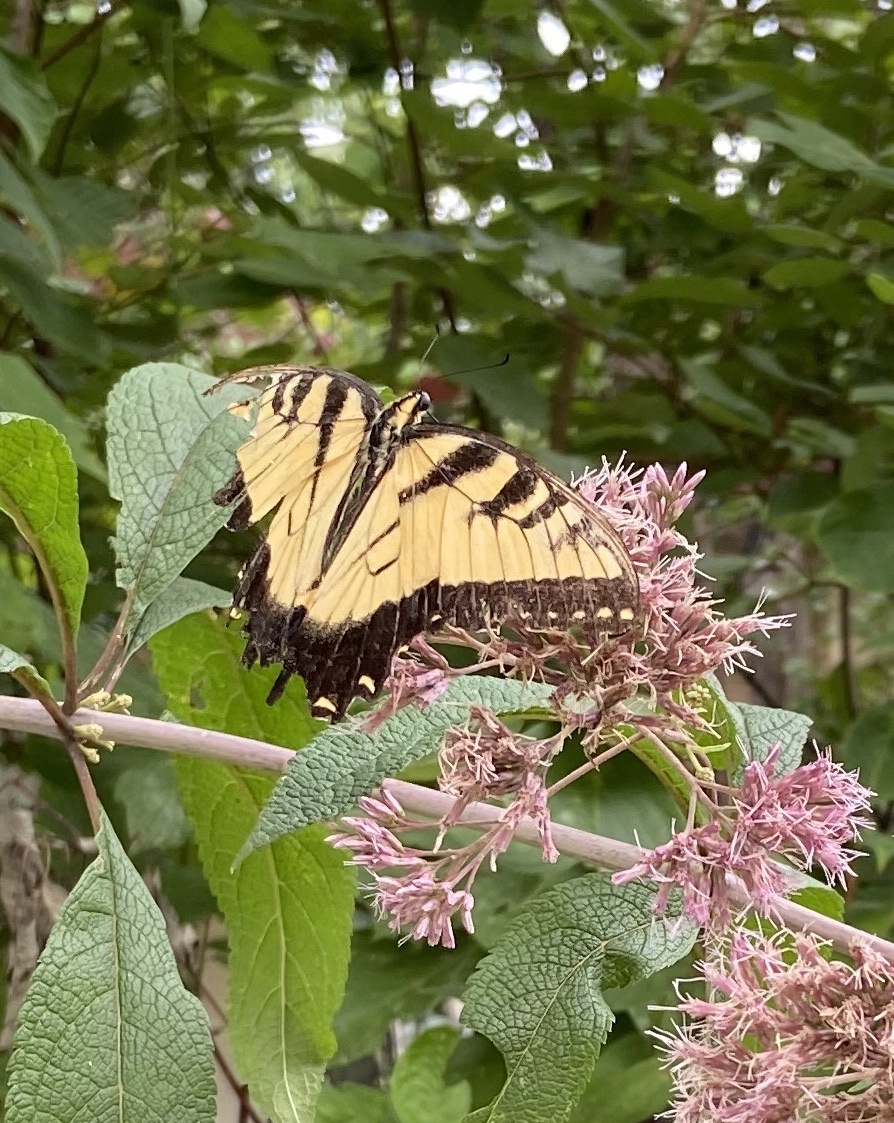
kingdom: Animalia
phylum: Arthropoda
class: Insecta
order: Lepidoptera
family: Papilionidae
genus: Papilio
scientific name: Papilio glaucus
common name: Tiger swallowtail
